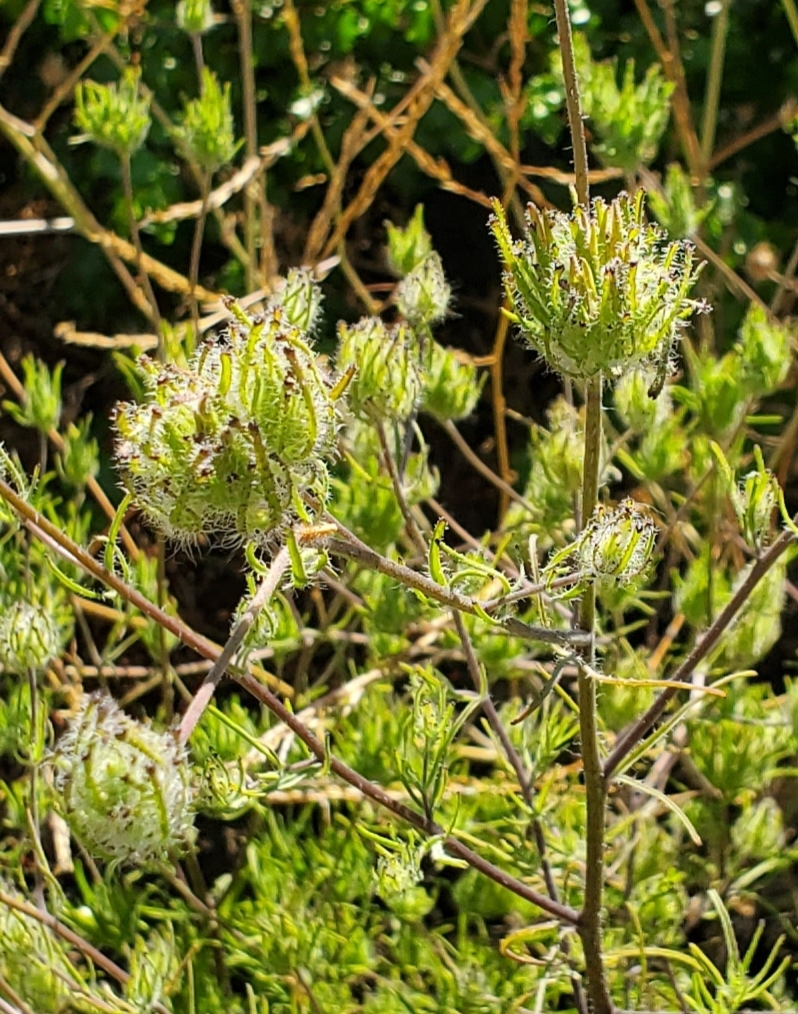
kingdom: Plantae
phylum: Tracheophyta
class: Magnoliopsida
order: Lamiales
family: Orobanchaceae
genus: Cordylanthus
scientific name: Cordylanthus rigidus
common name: Stiff-branch bird's-beak
